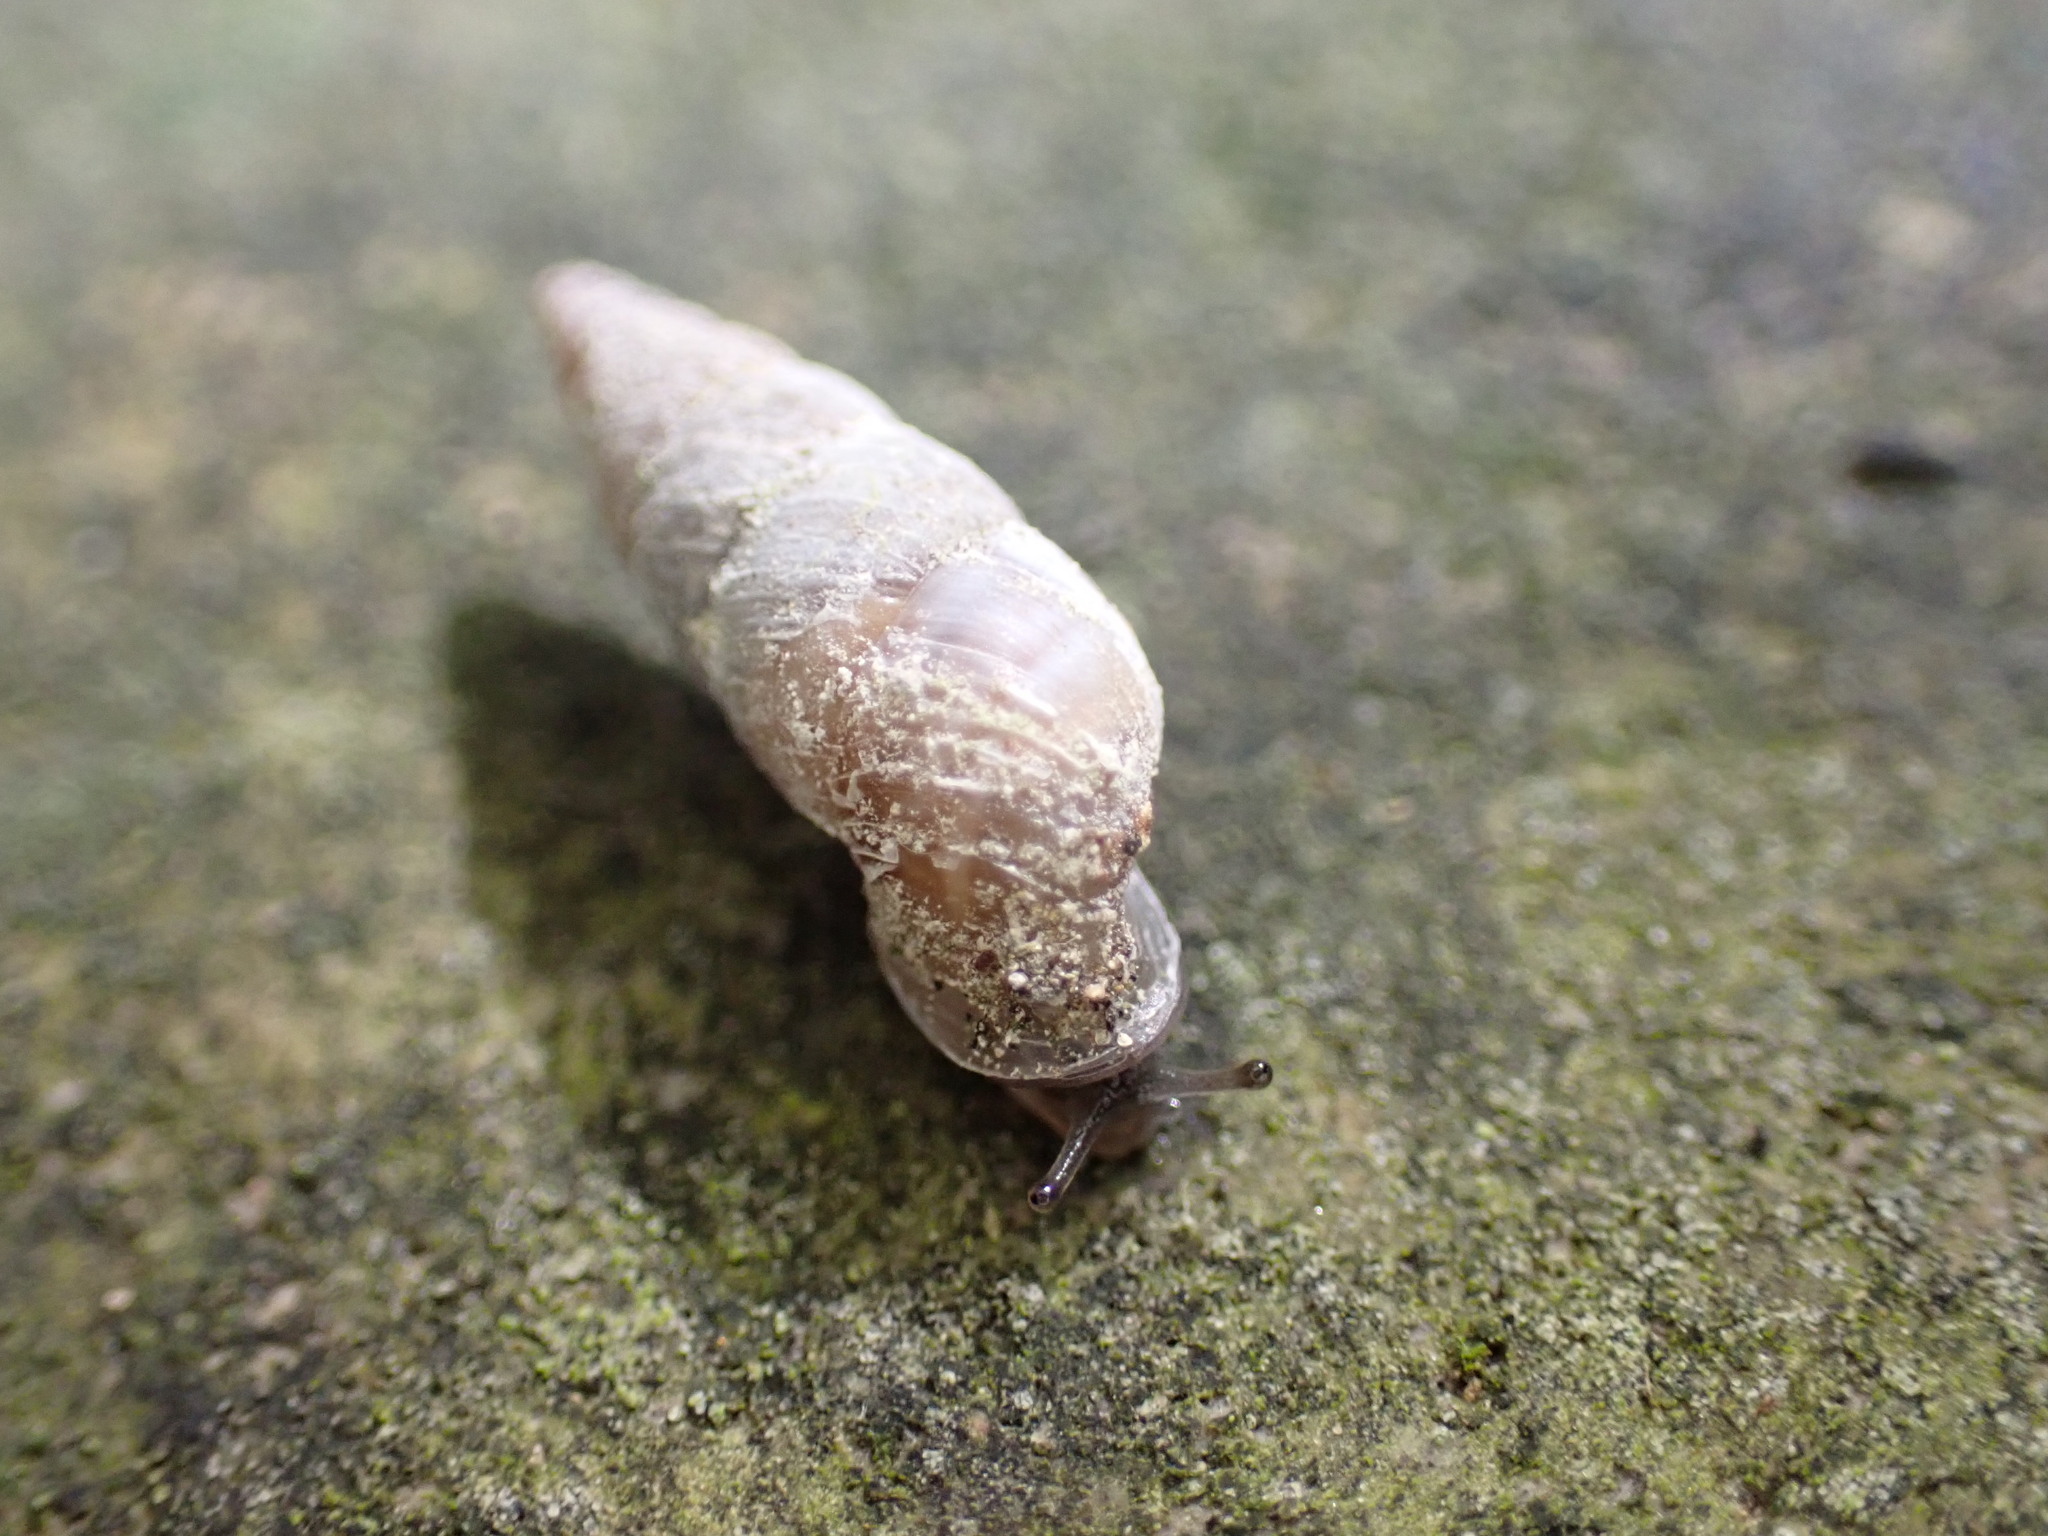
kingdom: Animalia
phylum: Mollusca
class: Gastropoda
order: Stylommatophora
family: Chondrinidae
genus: Solatopupa
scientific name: Solatopupa similis
